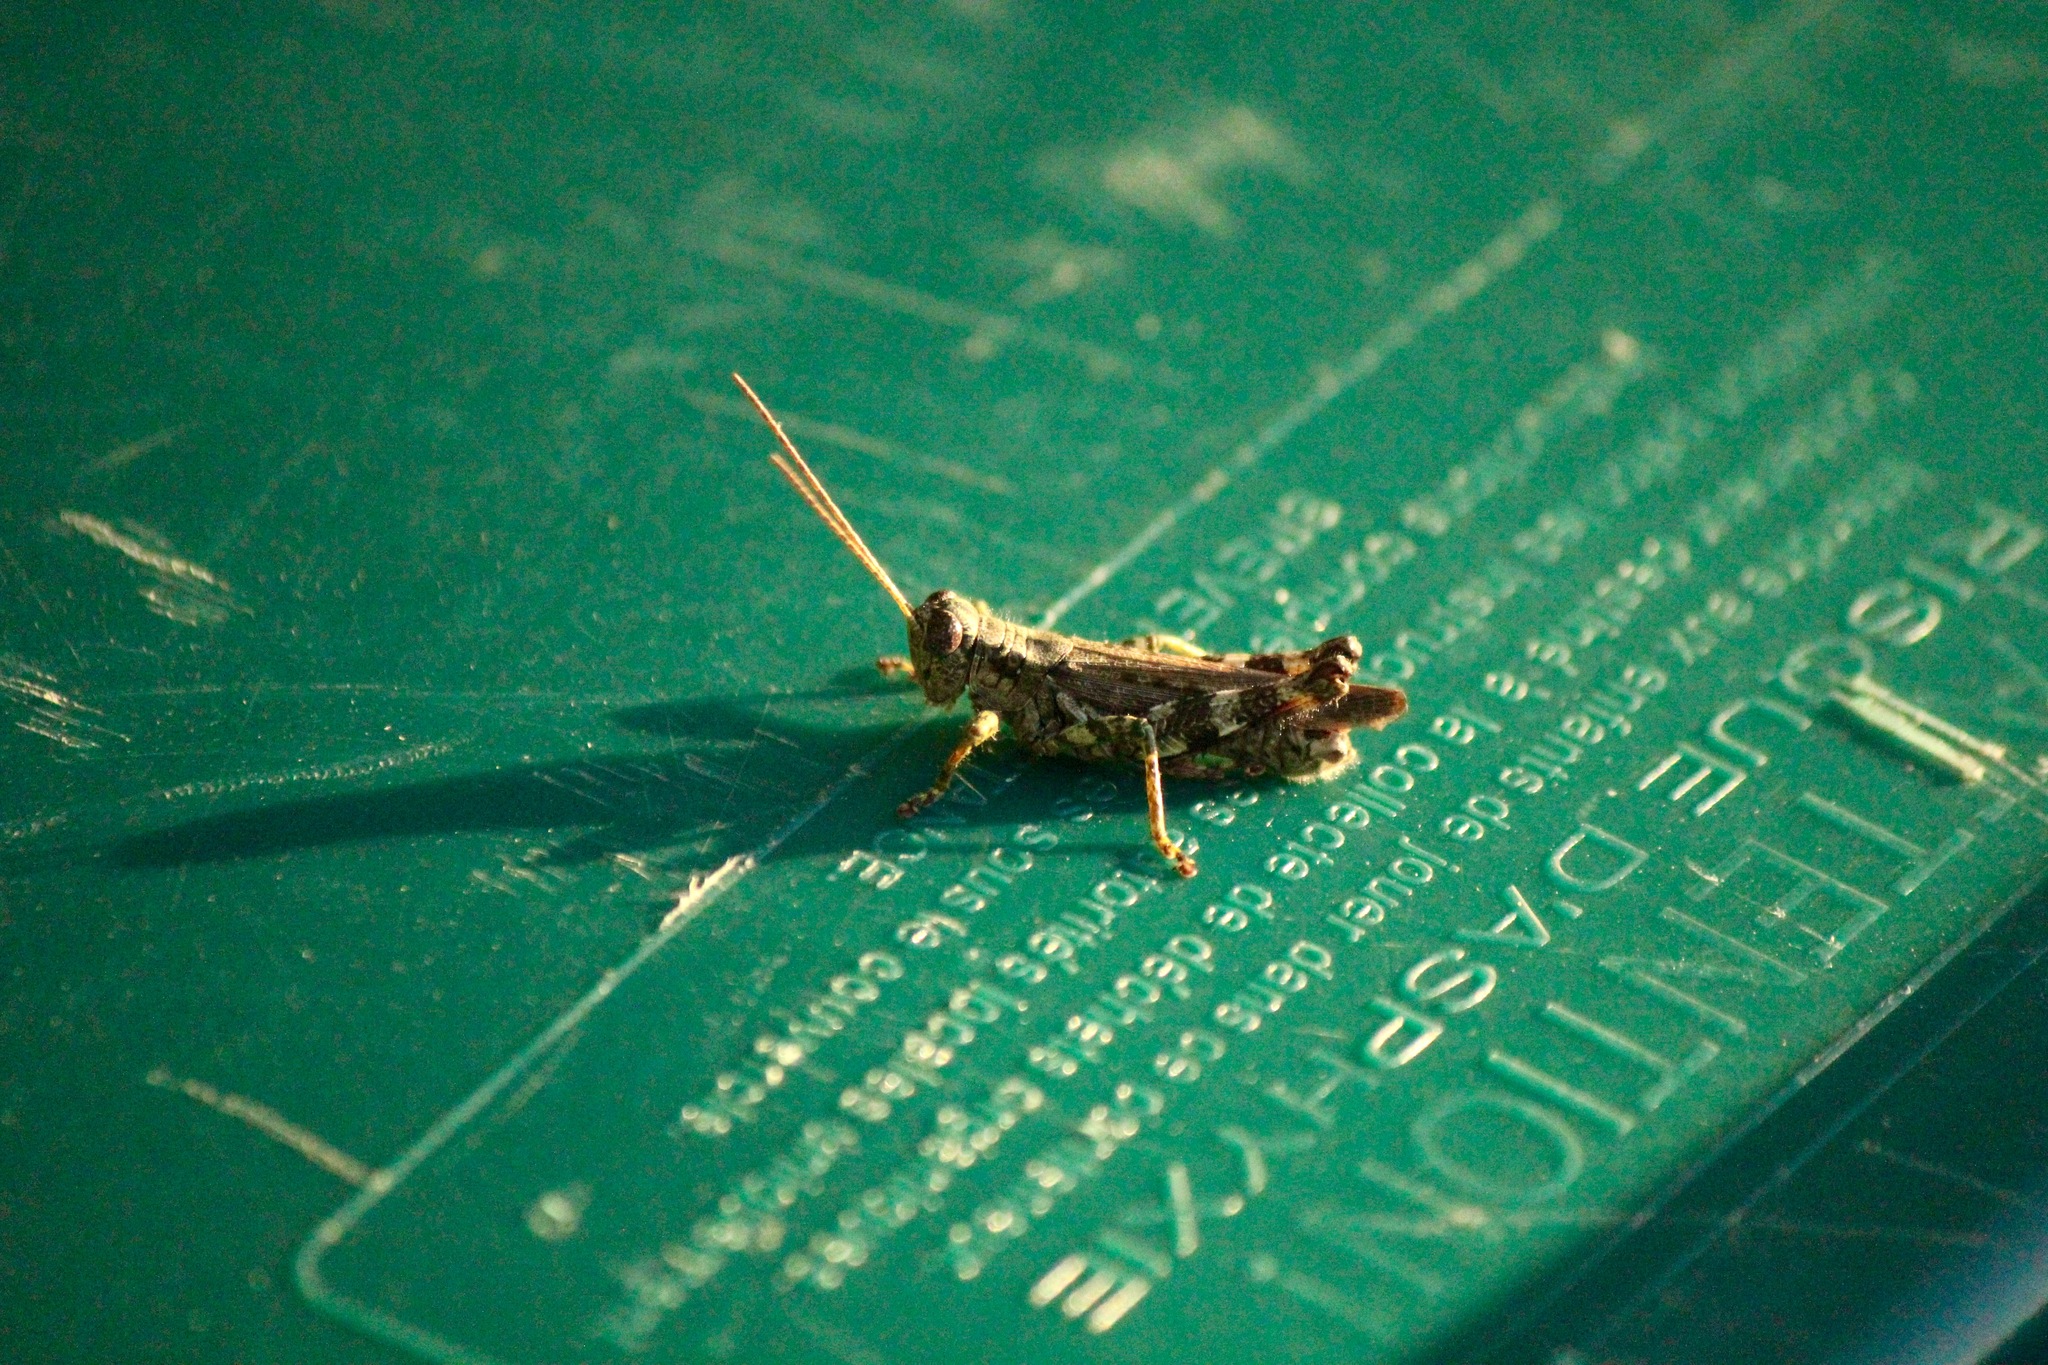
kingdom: Animalia
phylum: Arthropoda
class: Insecta
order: Orthoptera
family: Acrididae
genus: Melanoplus
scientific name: Melanoplus punctulatus
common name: Pine-tree spur-throat grasshopper
